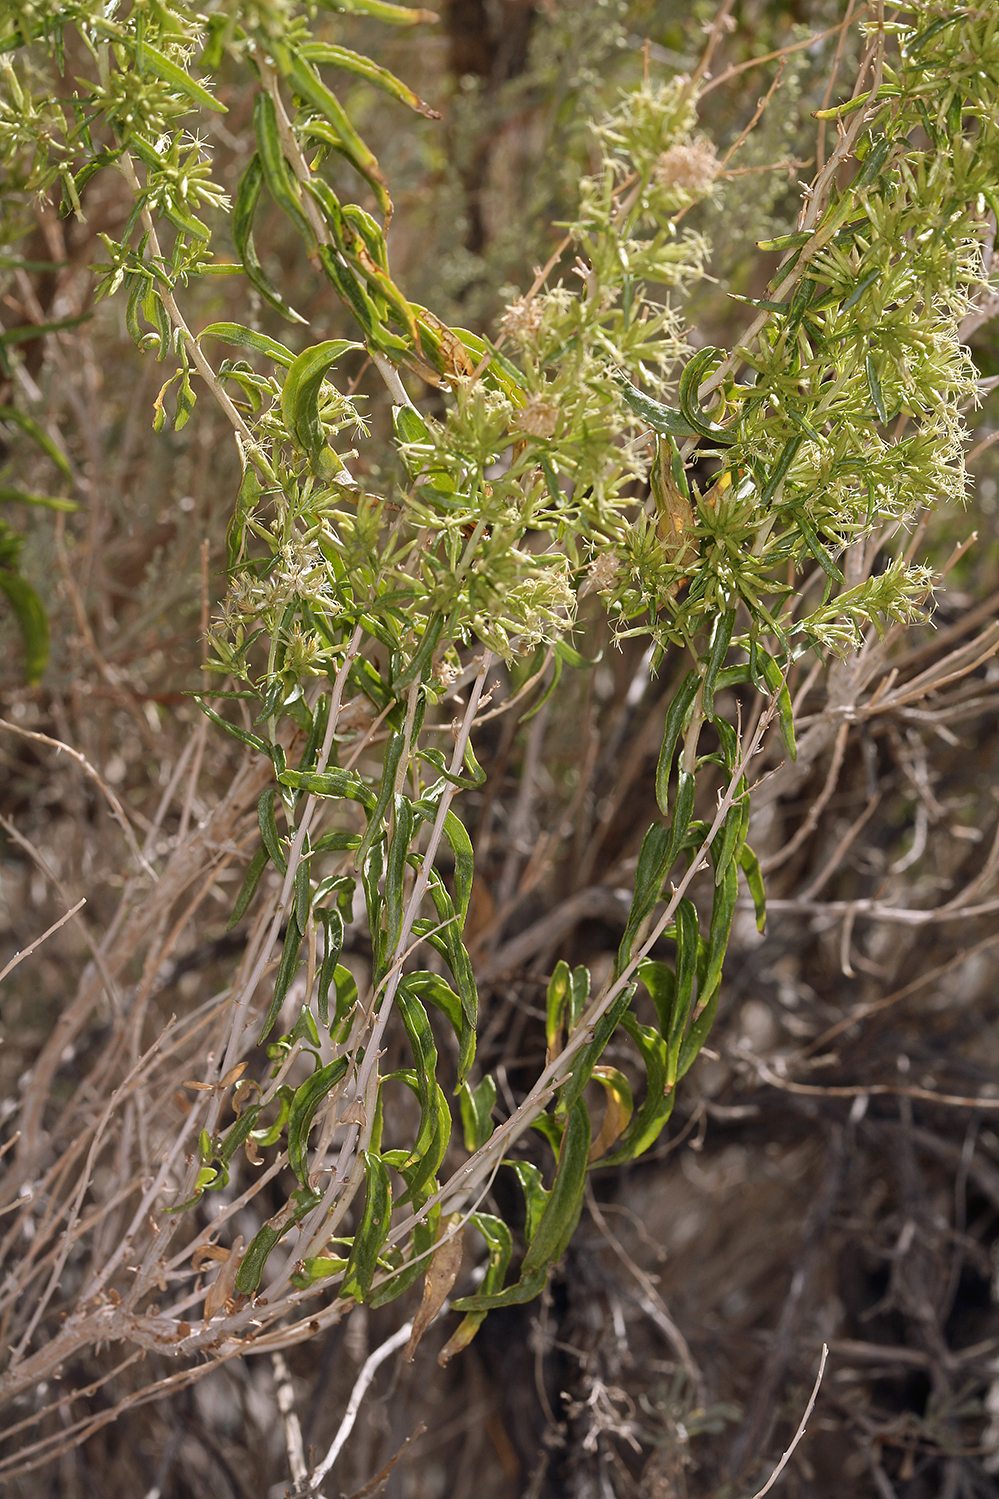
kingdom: Plantae
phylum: Tracheophyta
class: Magnoliopsida
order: Asterales
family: Asteraceae
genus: Brickellia
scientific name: Brickellia longifolia
